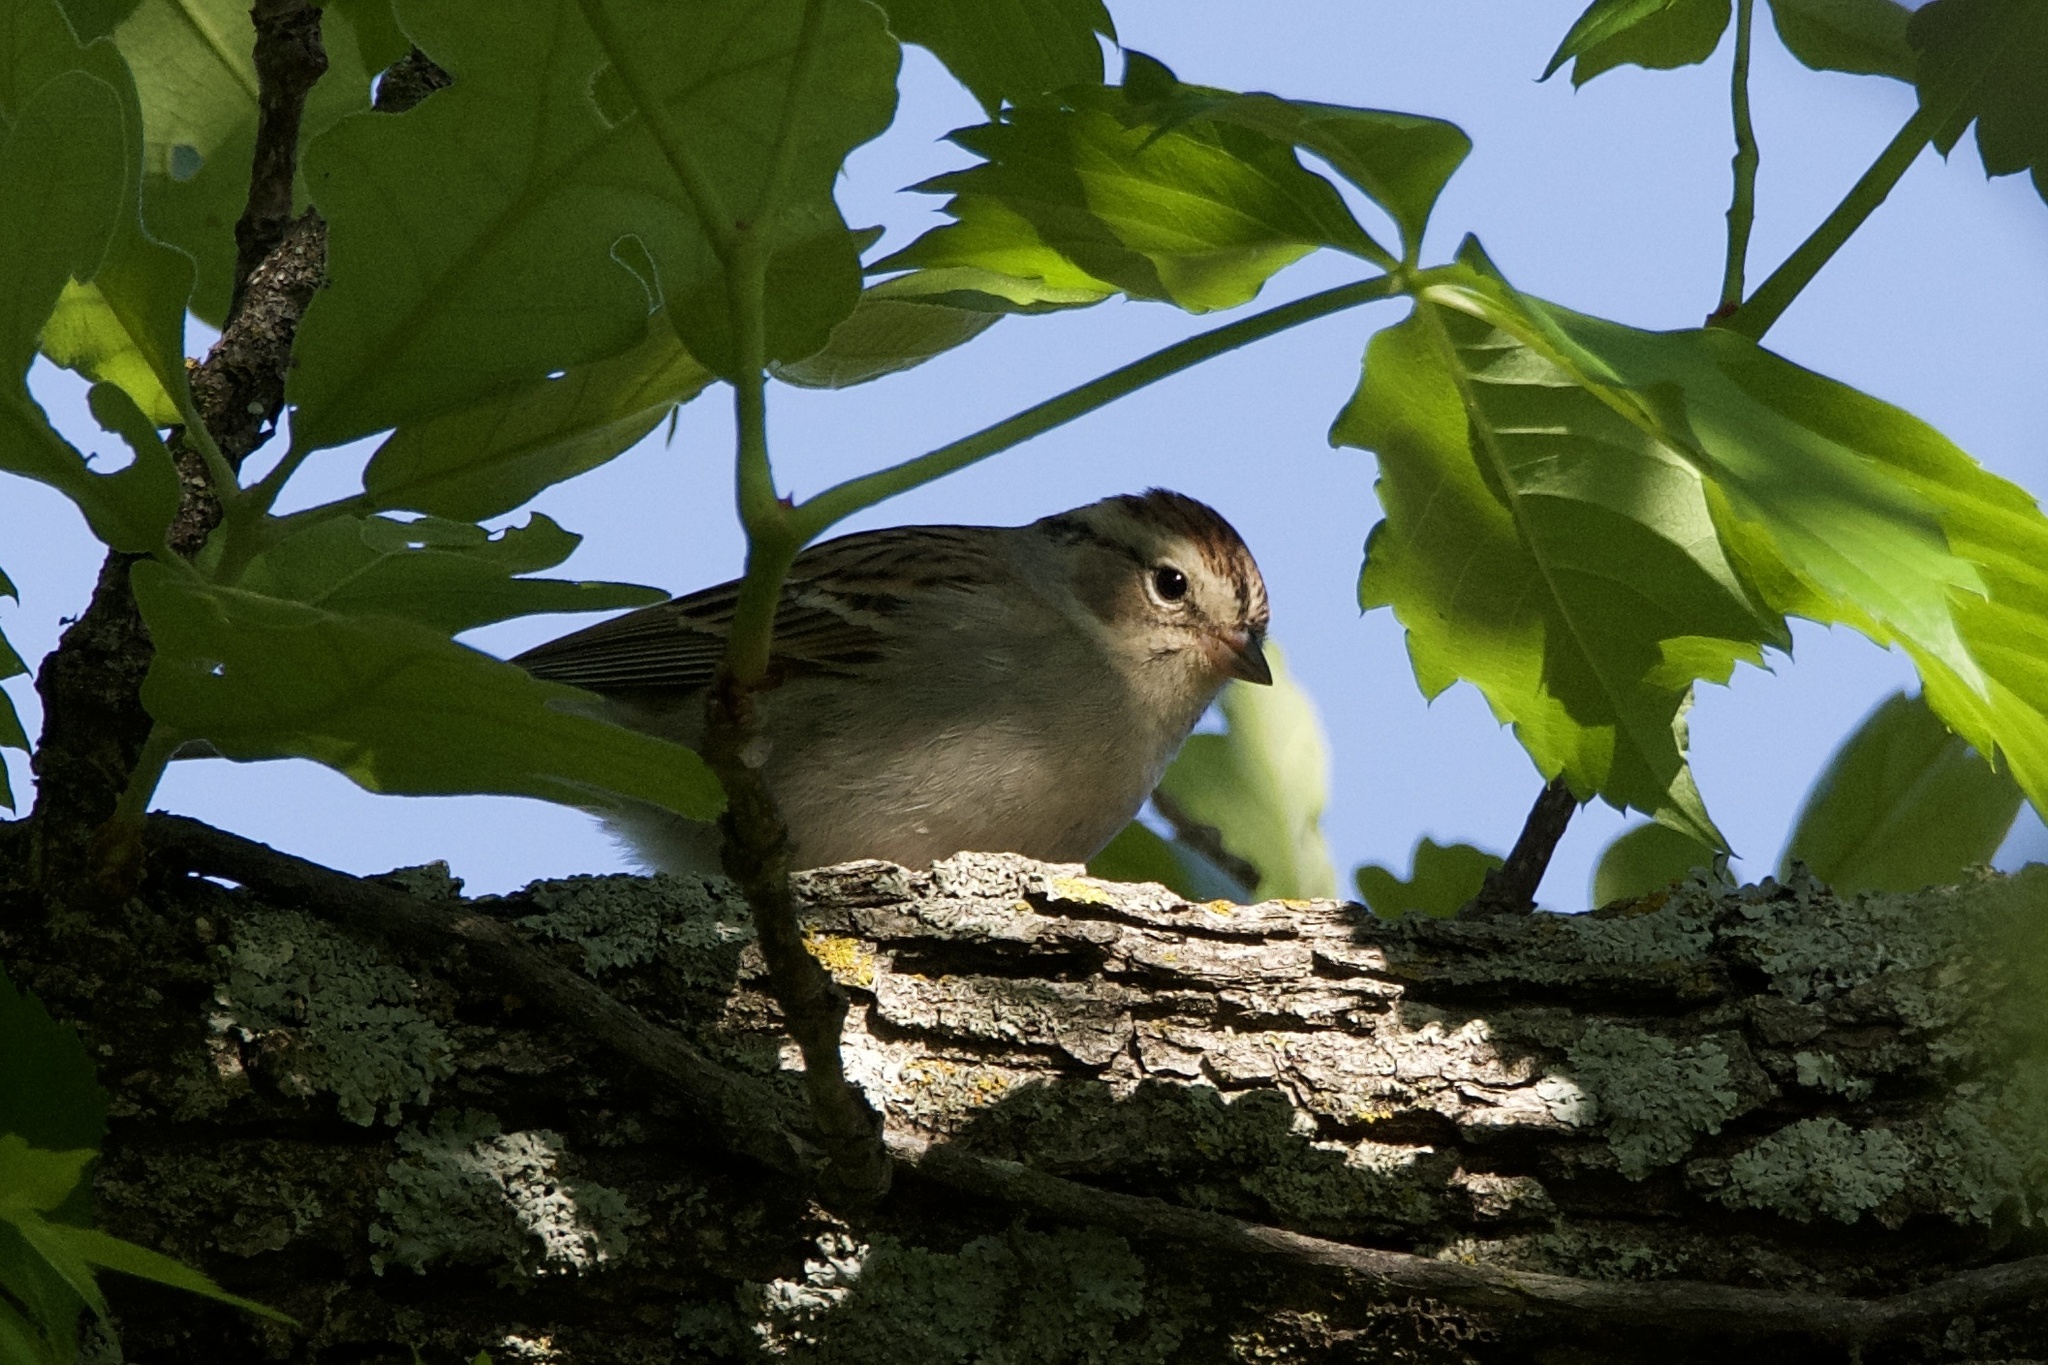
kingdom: Animalia
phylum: Chordata
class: Aves
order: Passeriformes
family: Passerellidae
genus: Spizella
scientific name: Spizella passerina
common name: Chipping sparrow
